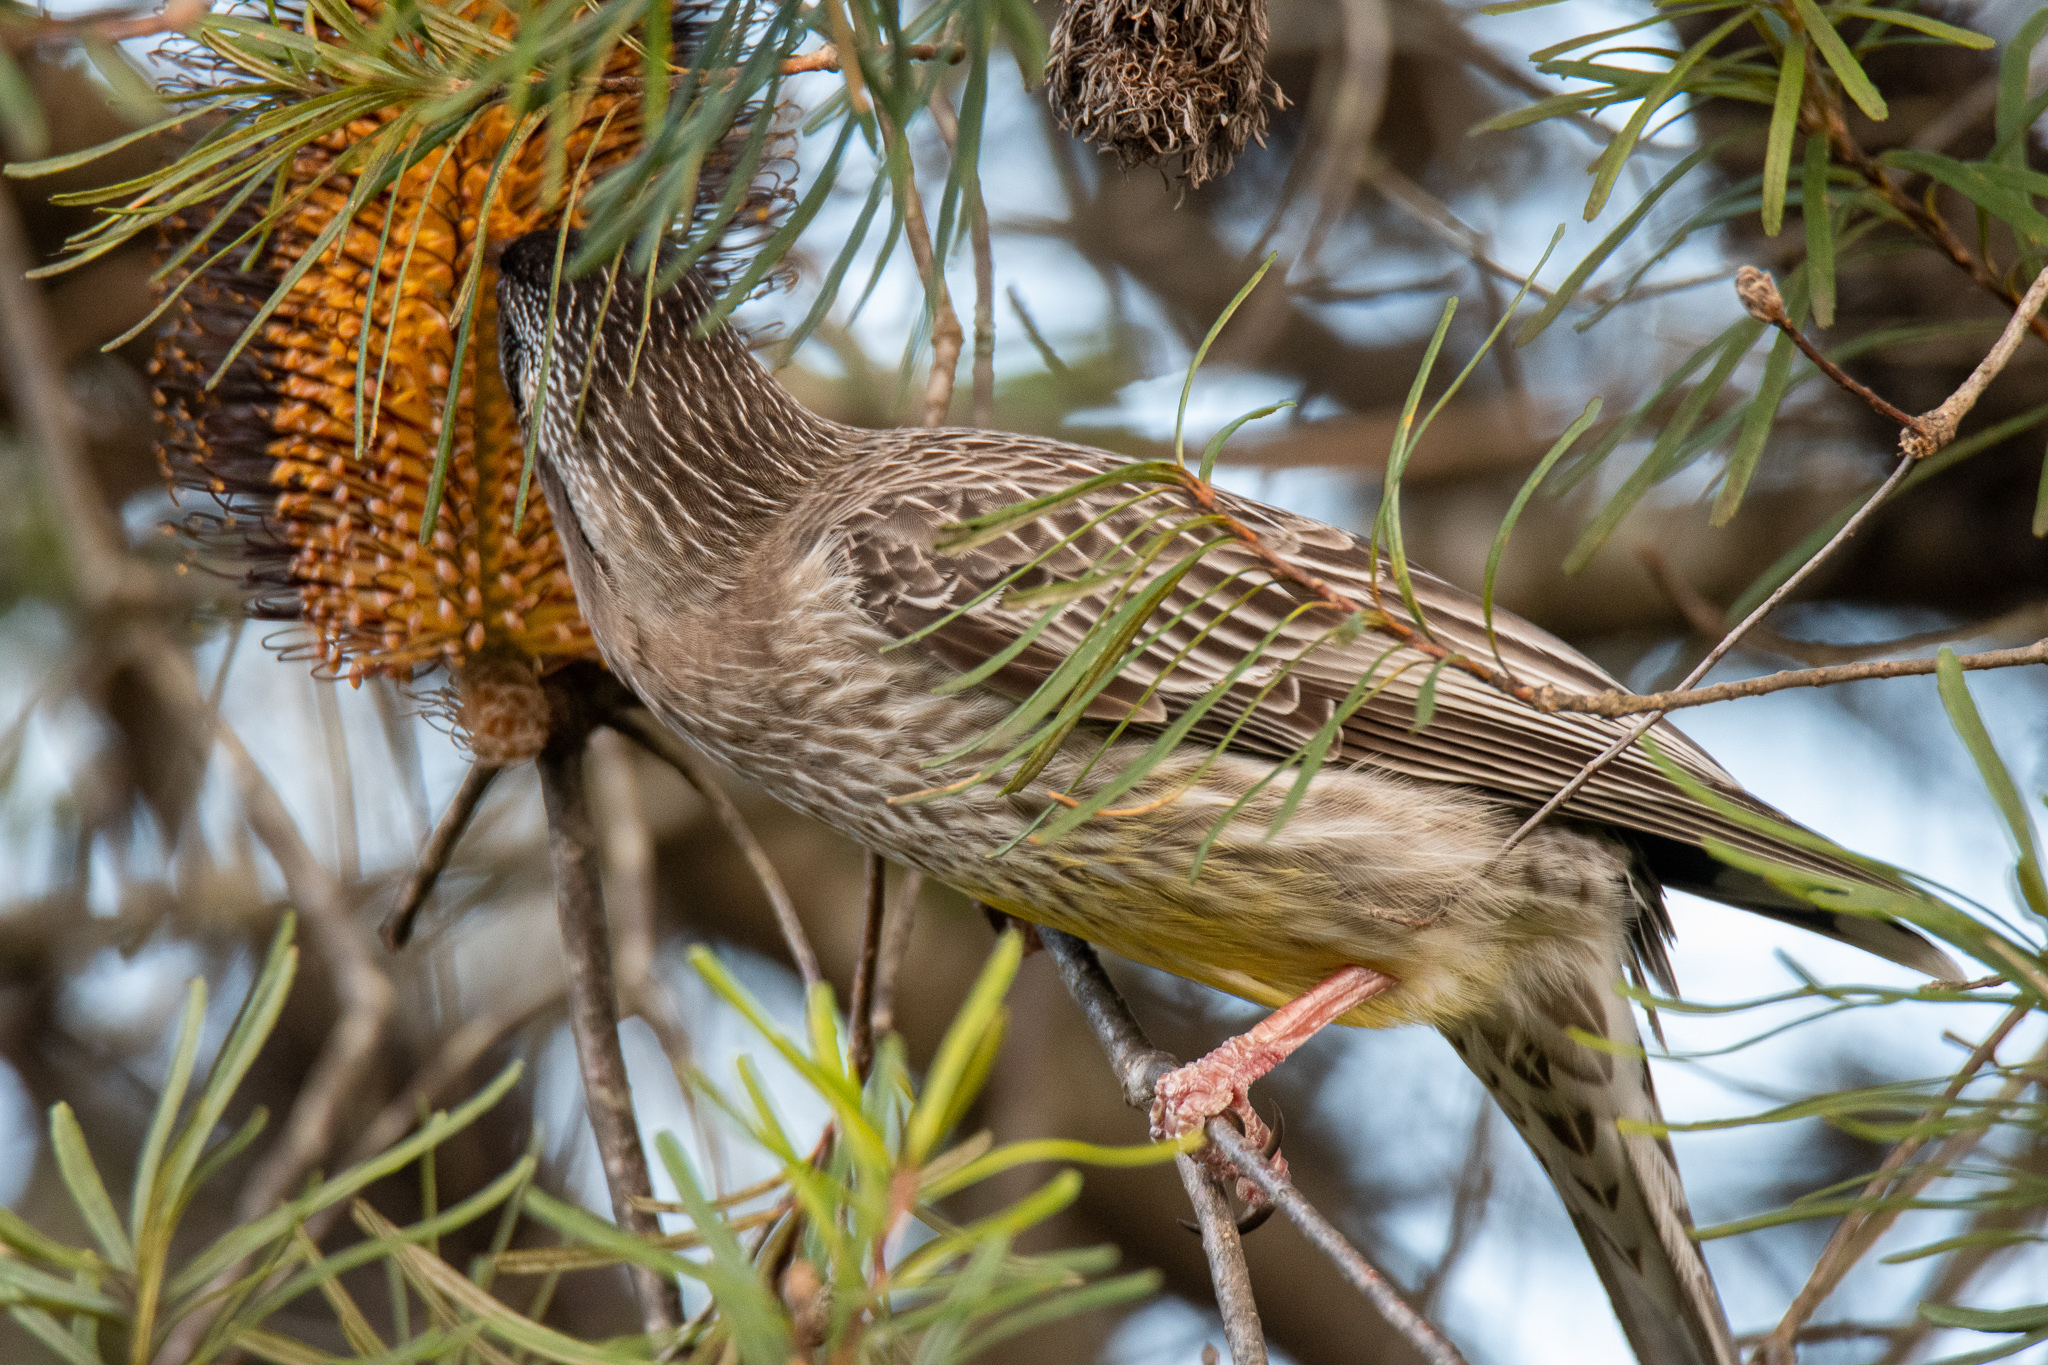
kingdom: Animalia
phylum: Chordata
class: Aves
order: Passeriformes
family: Meliphagidae
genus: Anthochaera
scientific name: Anthochaera carunculata
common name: Red wattlebird
